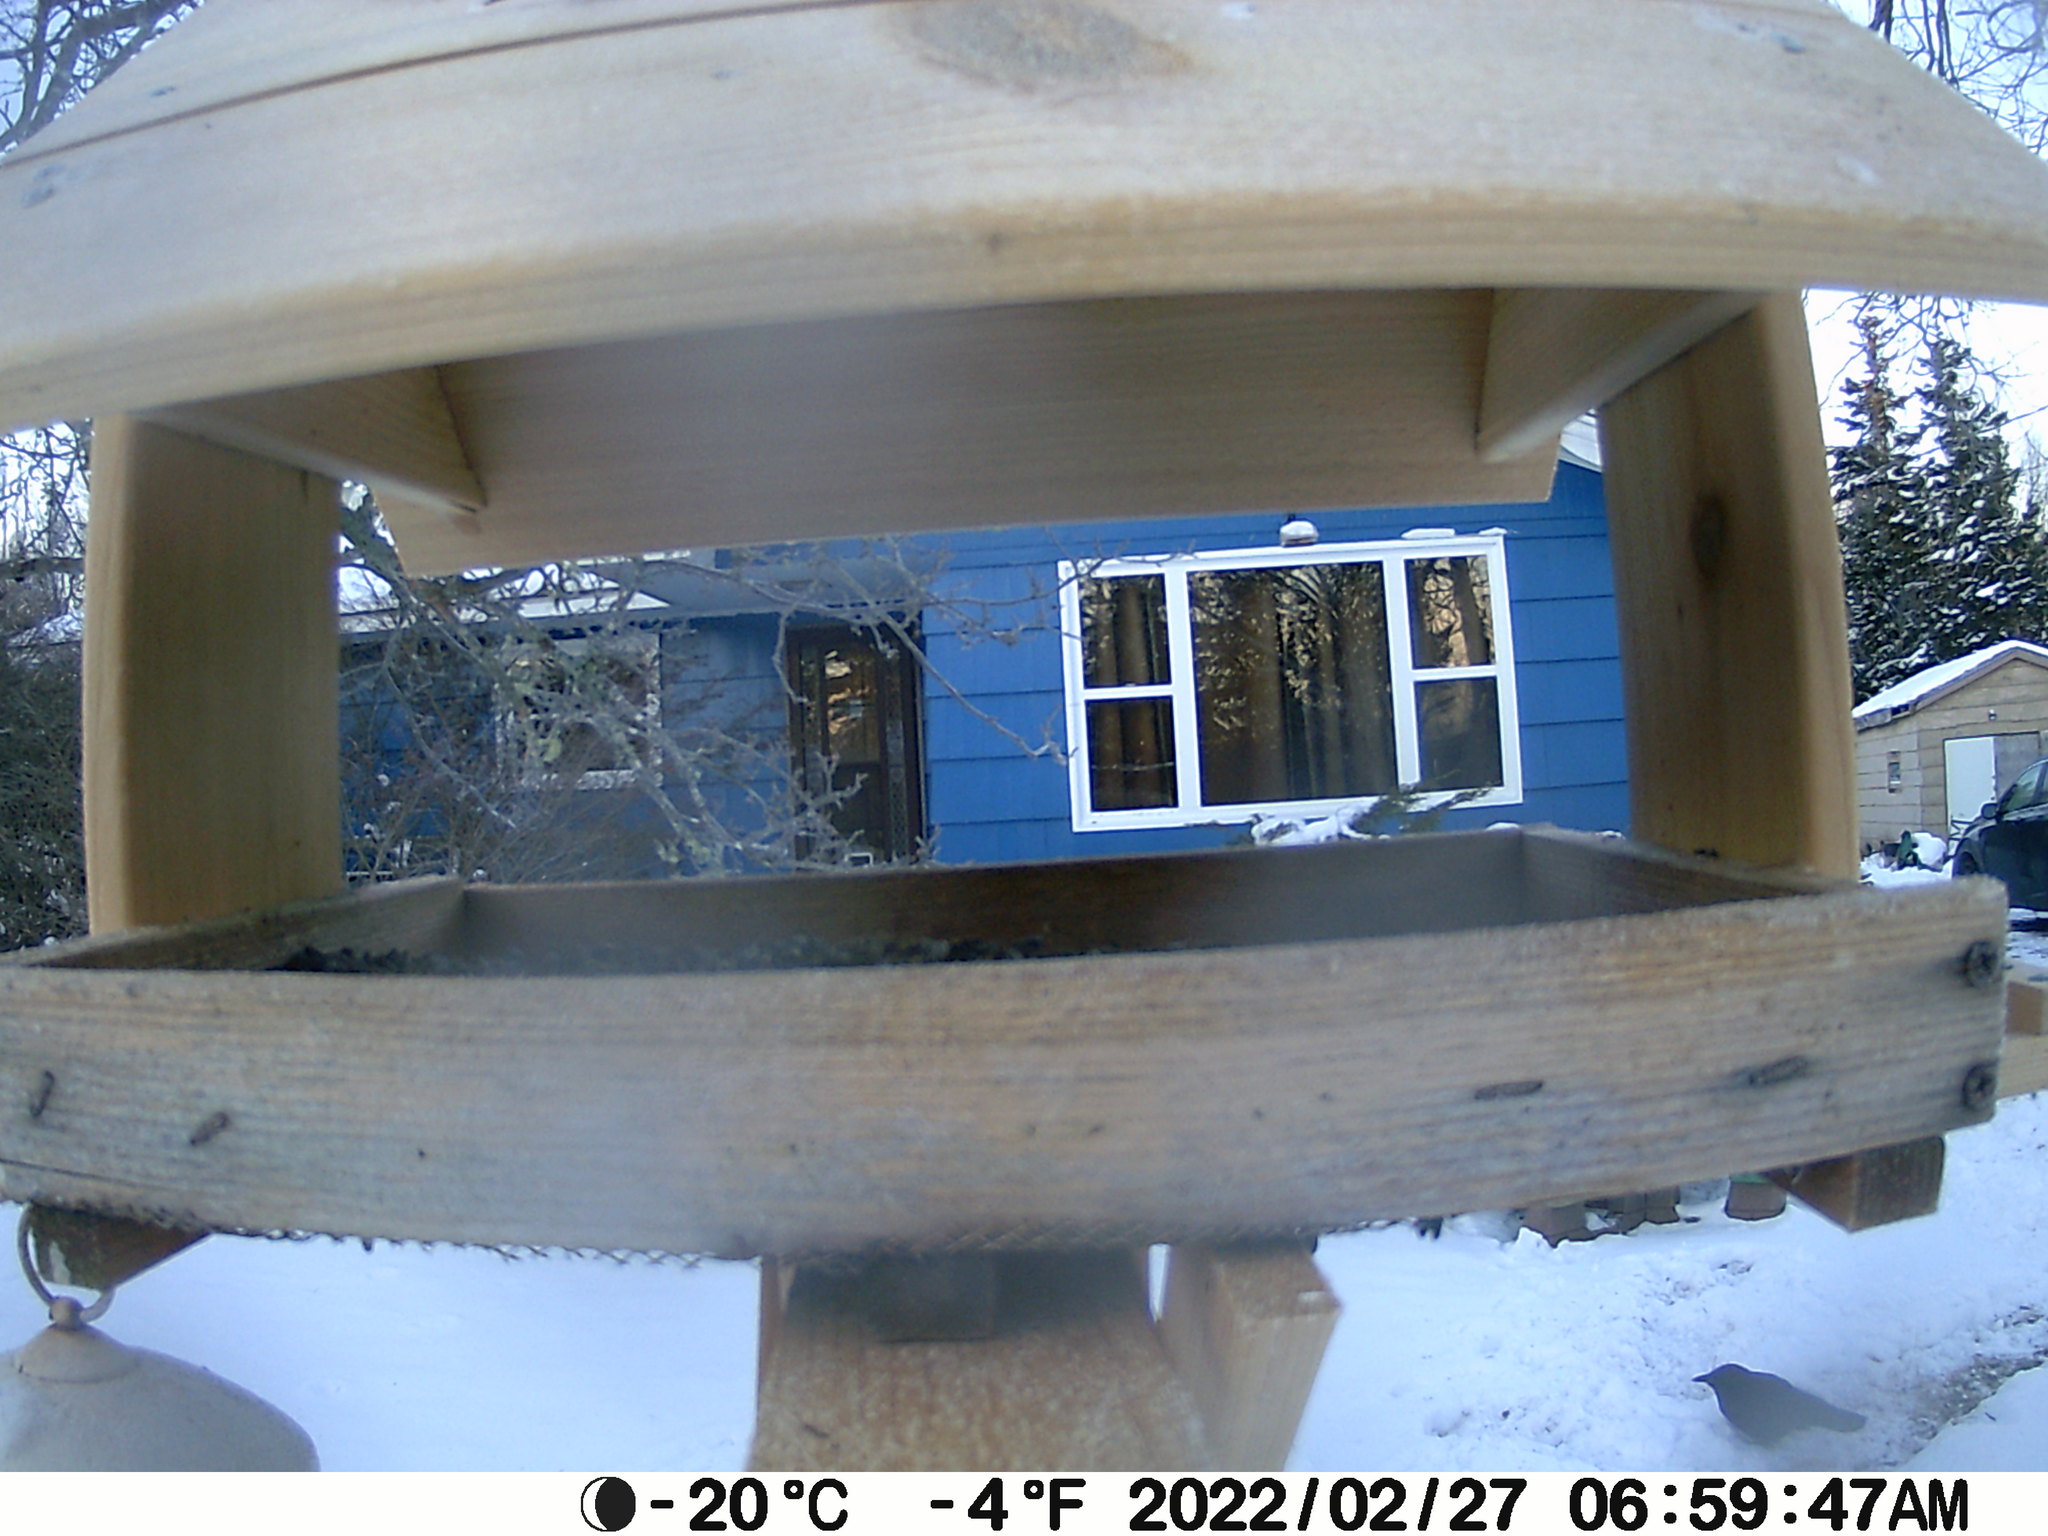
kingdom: Animalia
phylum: Chordata
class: Aves
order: Passeriformes
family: Corvidae
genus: Corvus
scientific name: Corvus brachyrhynchos
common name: American crow
